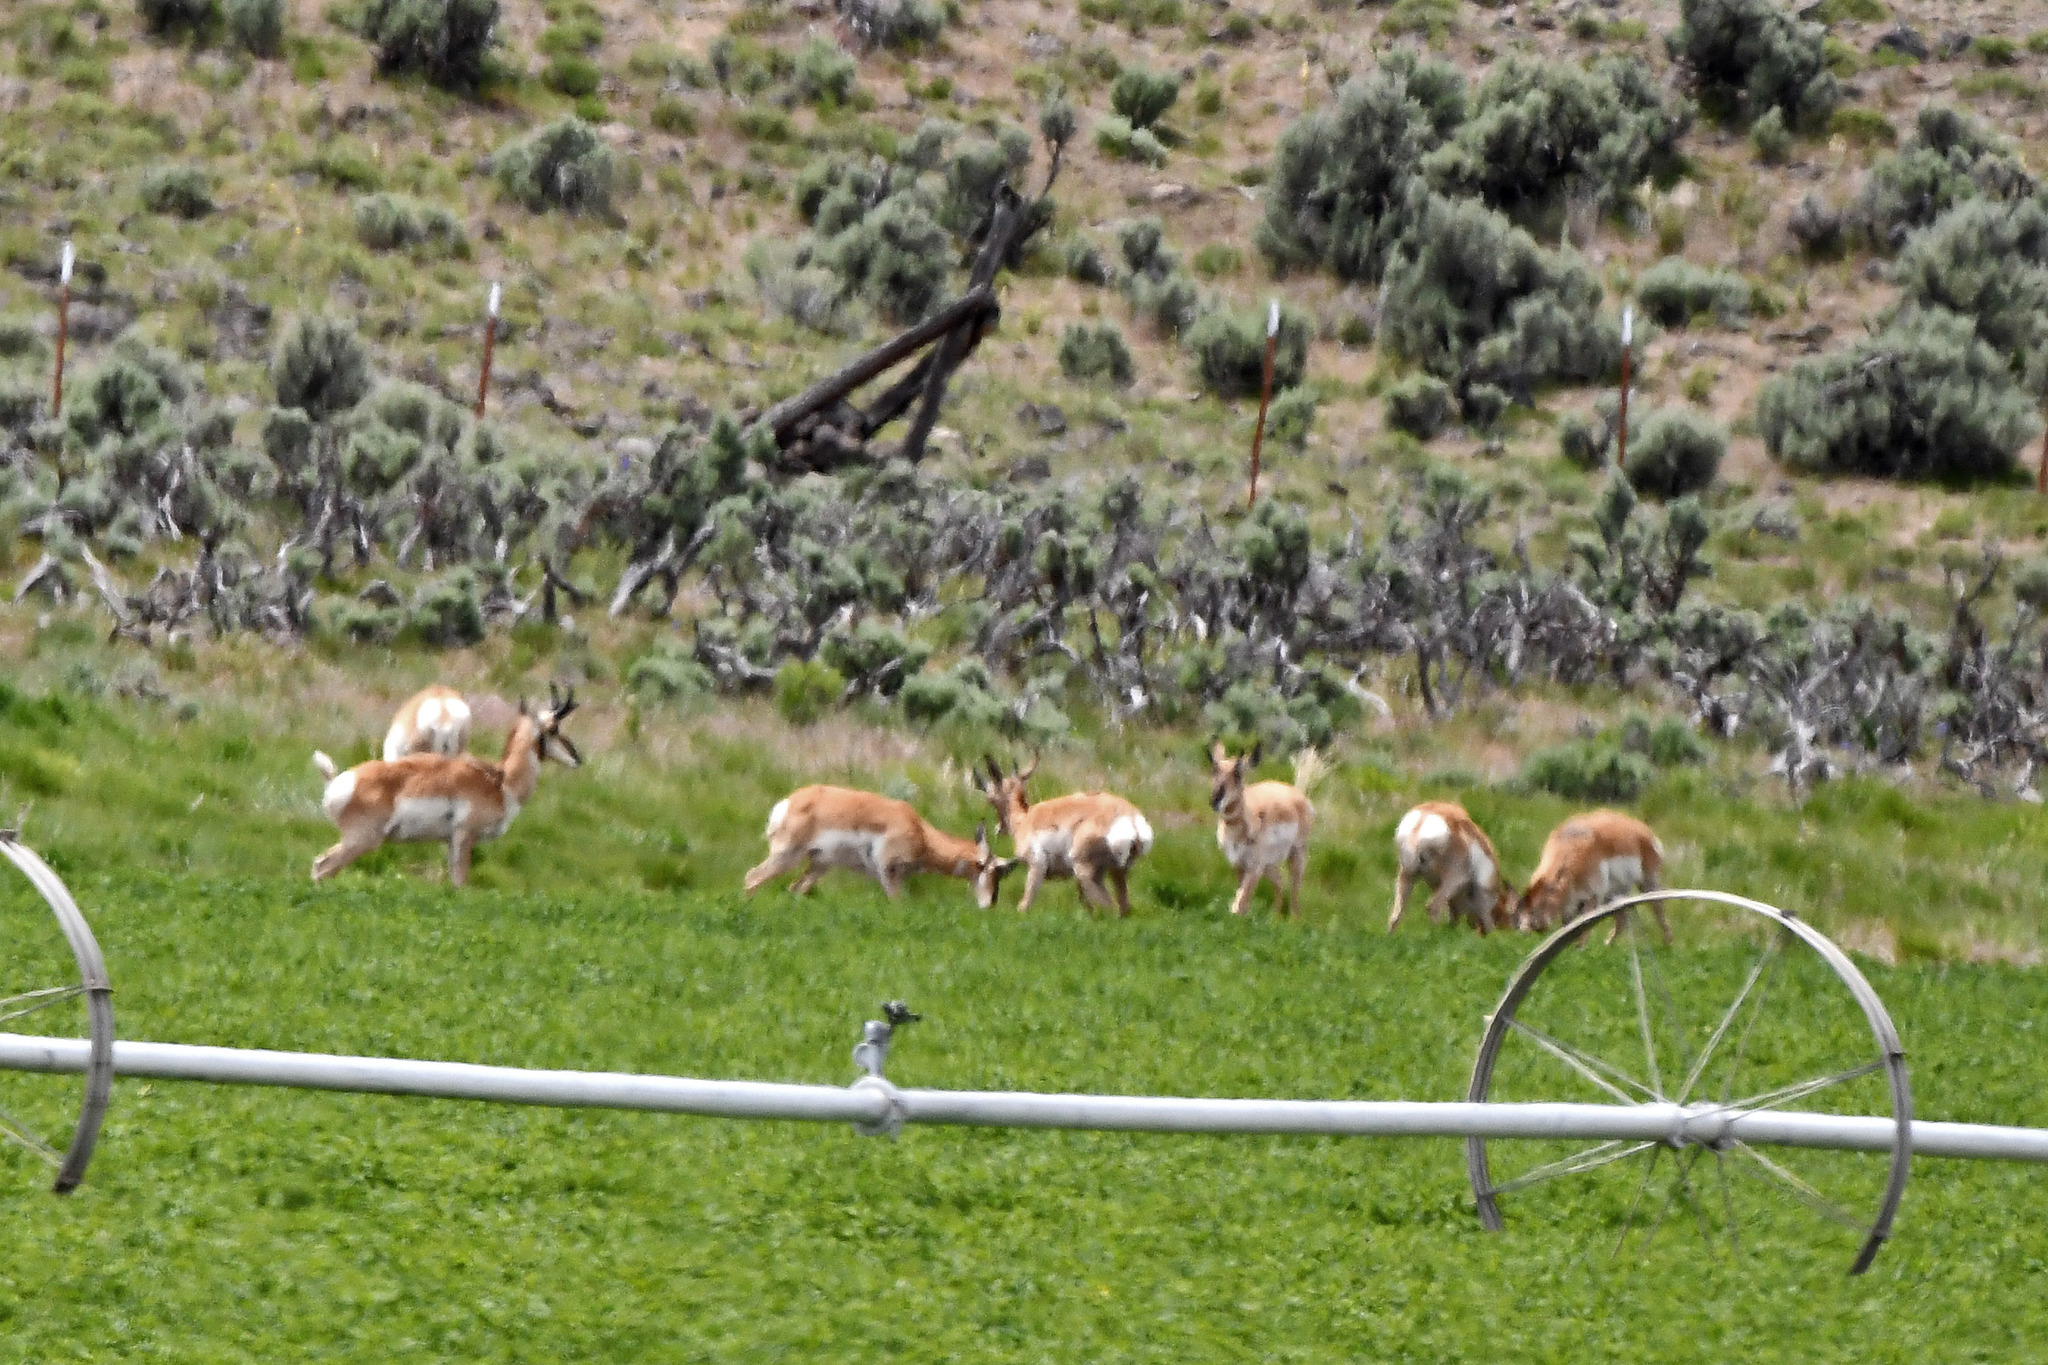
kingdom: Animalia
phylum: Chordata
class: Mammalia
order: Artiodactyla
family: Antilocapridae
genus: Antilocapra
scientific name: Antilocapra americana
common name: Pronghorn
